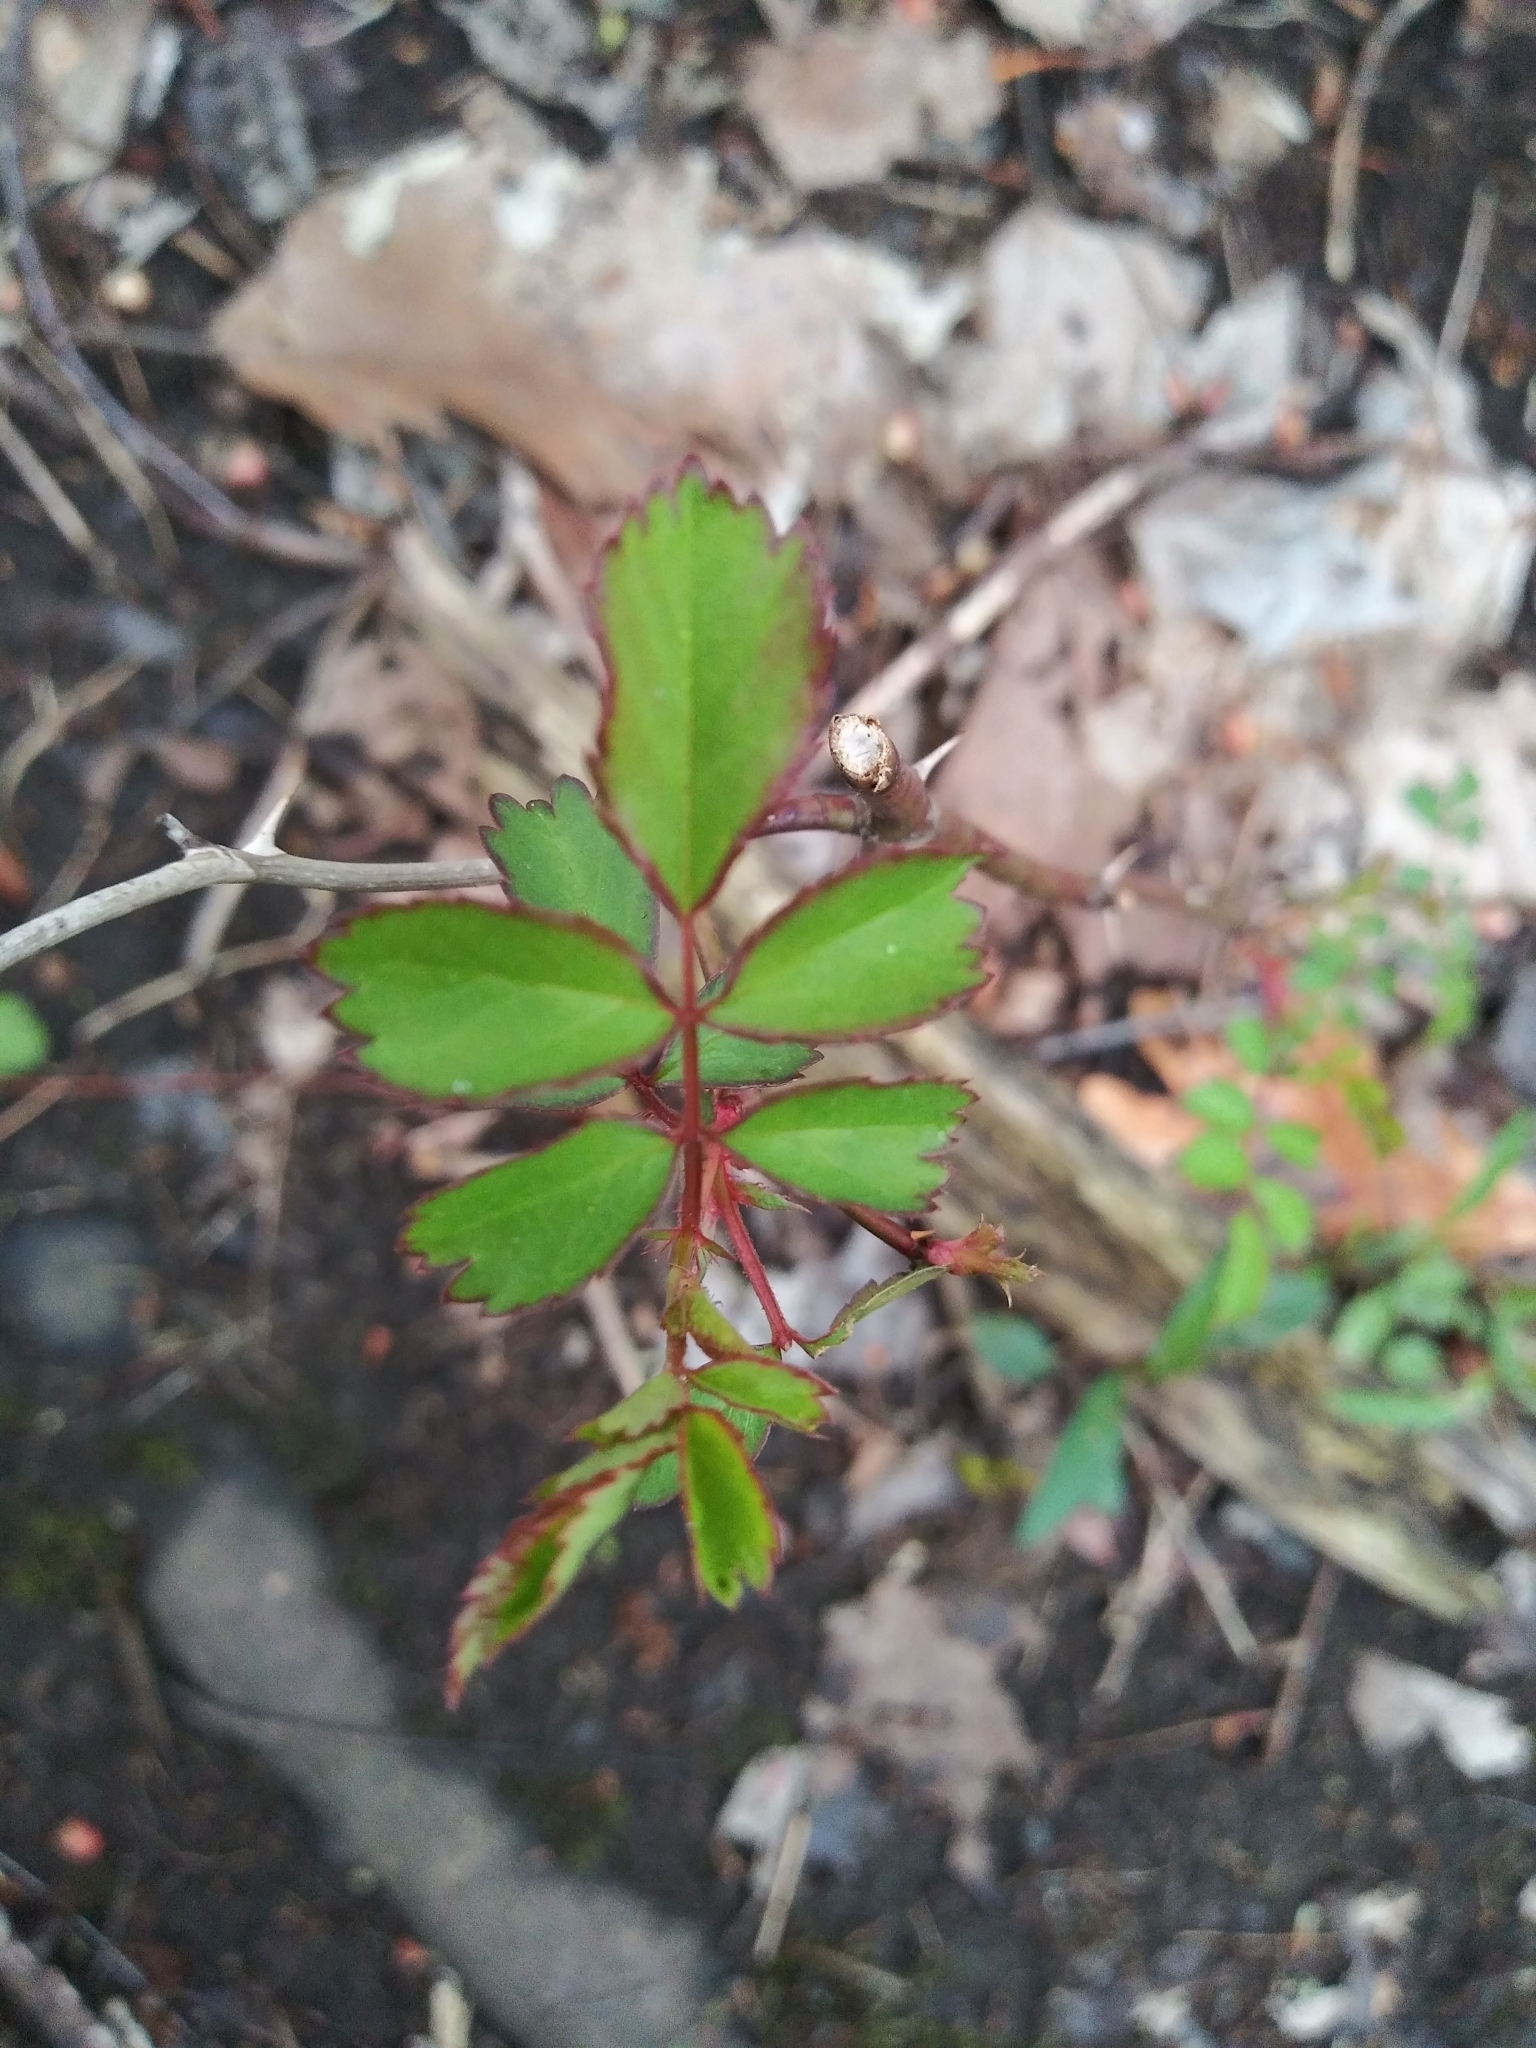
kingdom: Plantae
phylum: Tracheophyta
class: Magnoliopsida
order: Rosales
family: Rosaceae
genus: Rosa
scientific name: Rosa multiflora
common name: Multiflora rose
